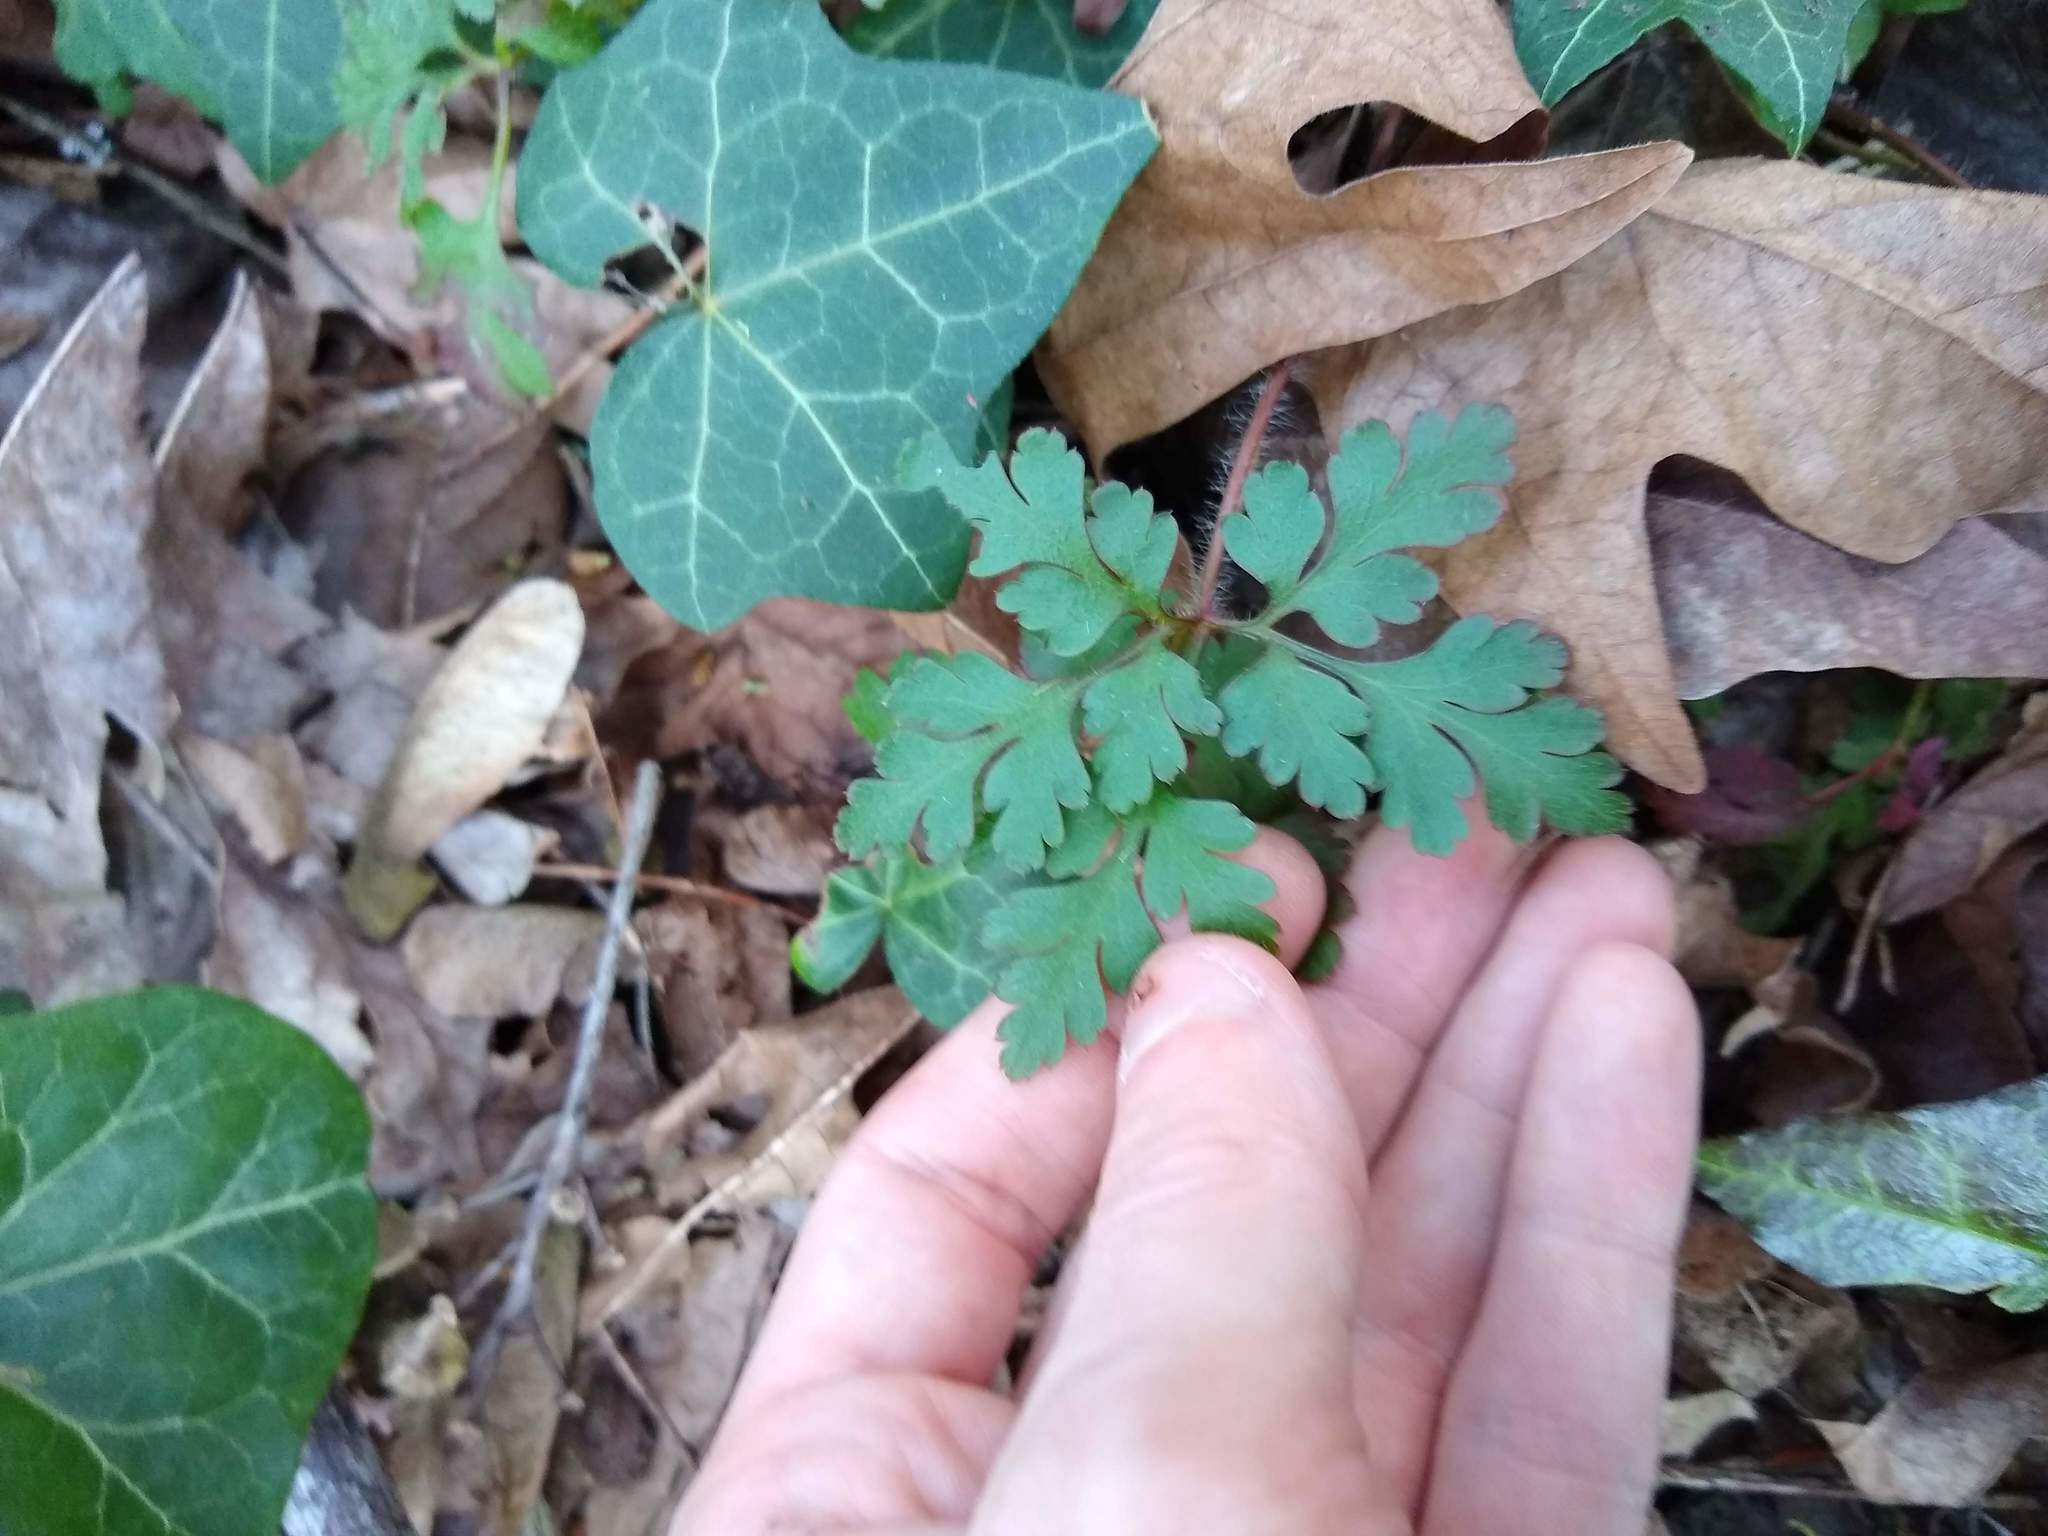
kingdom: Plantae
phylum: Tracheophyta
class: Magnoliopsida
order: Geraniales
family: Geraniaceae
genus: Geranium
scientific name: Geranium robertianum
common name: Herb-robert
